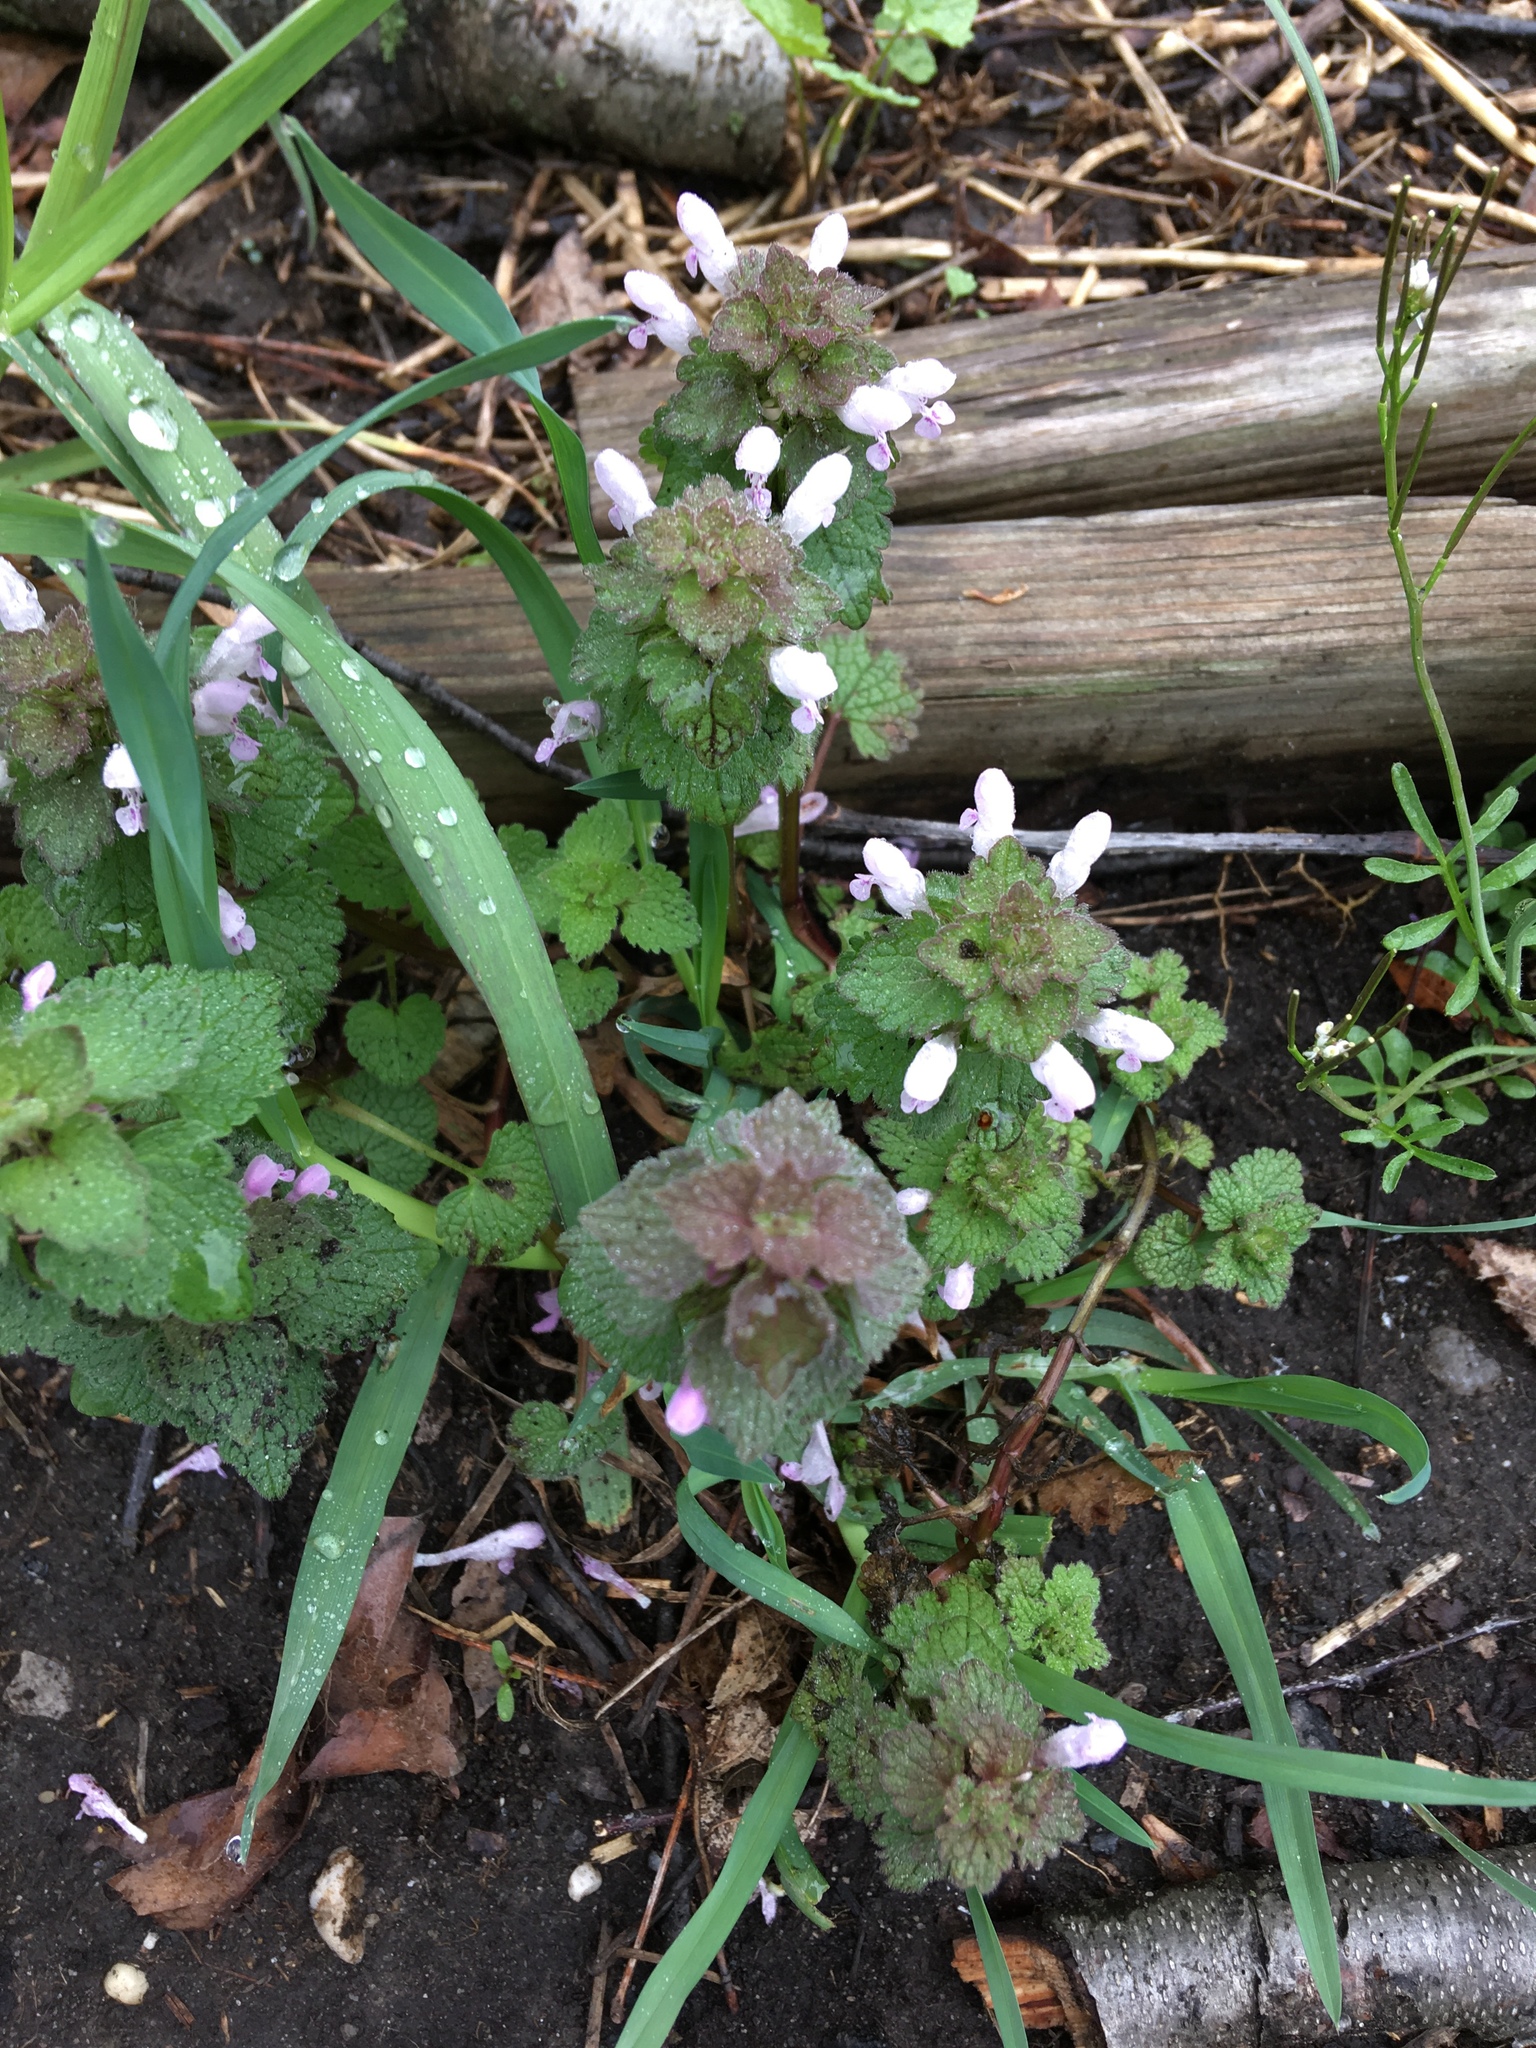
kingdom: Plantae
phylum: Tracheophyta
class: Magnoliopsida
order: Lamiales
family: Lamiaceae
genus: Lamium
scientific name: Lamium purpureum
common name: Red dead-nettle
